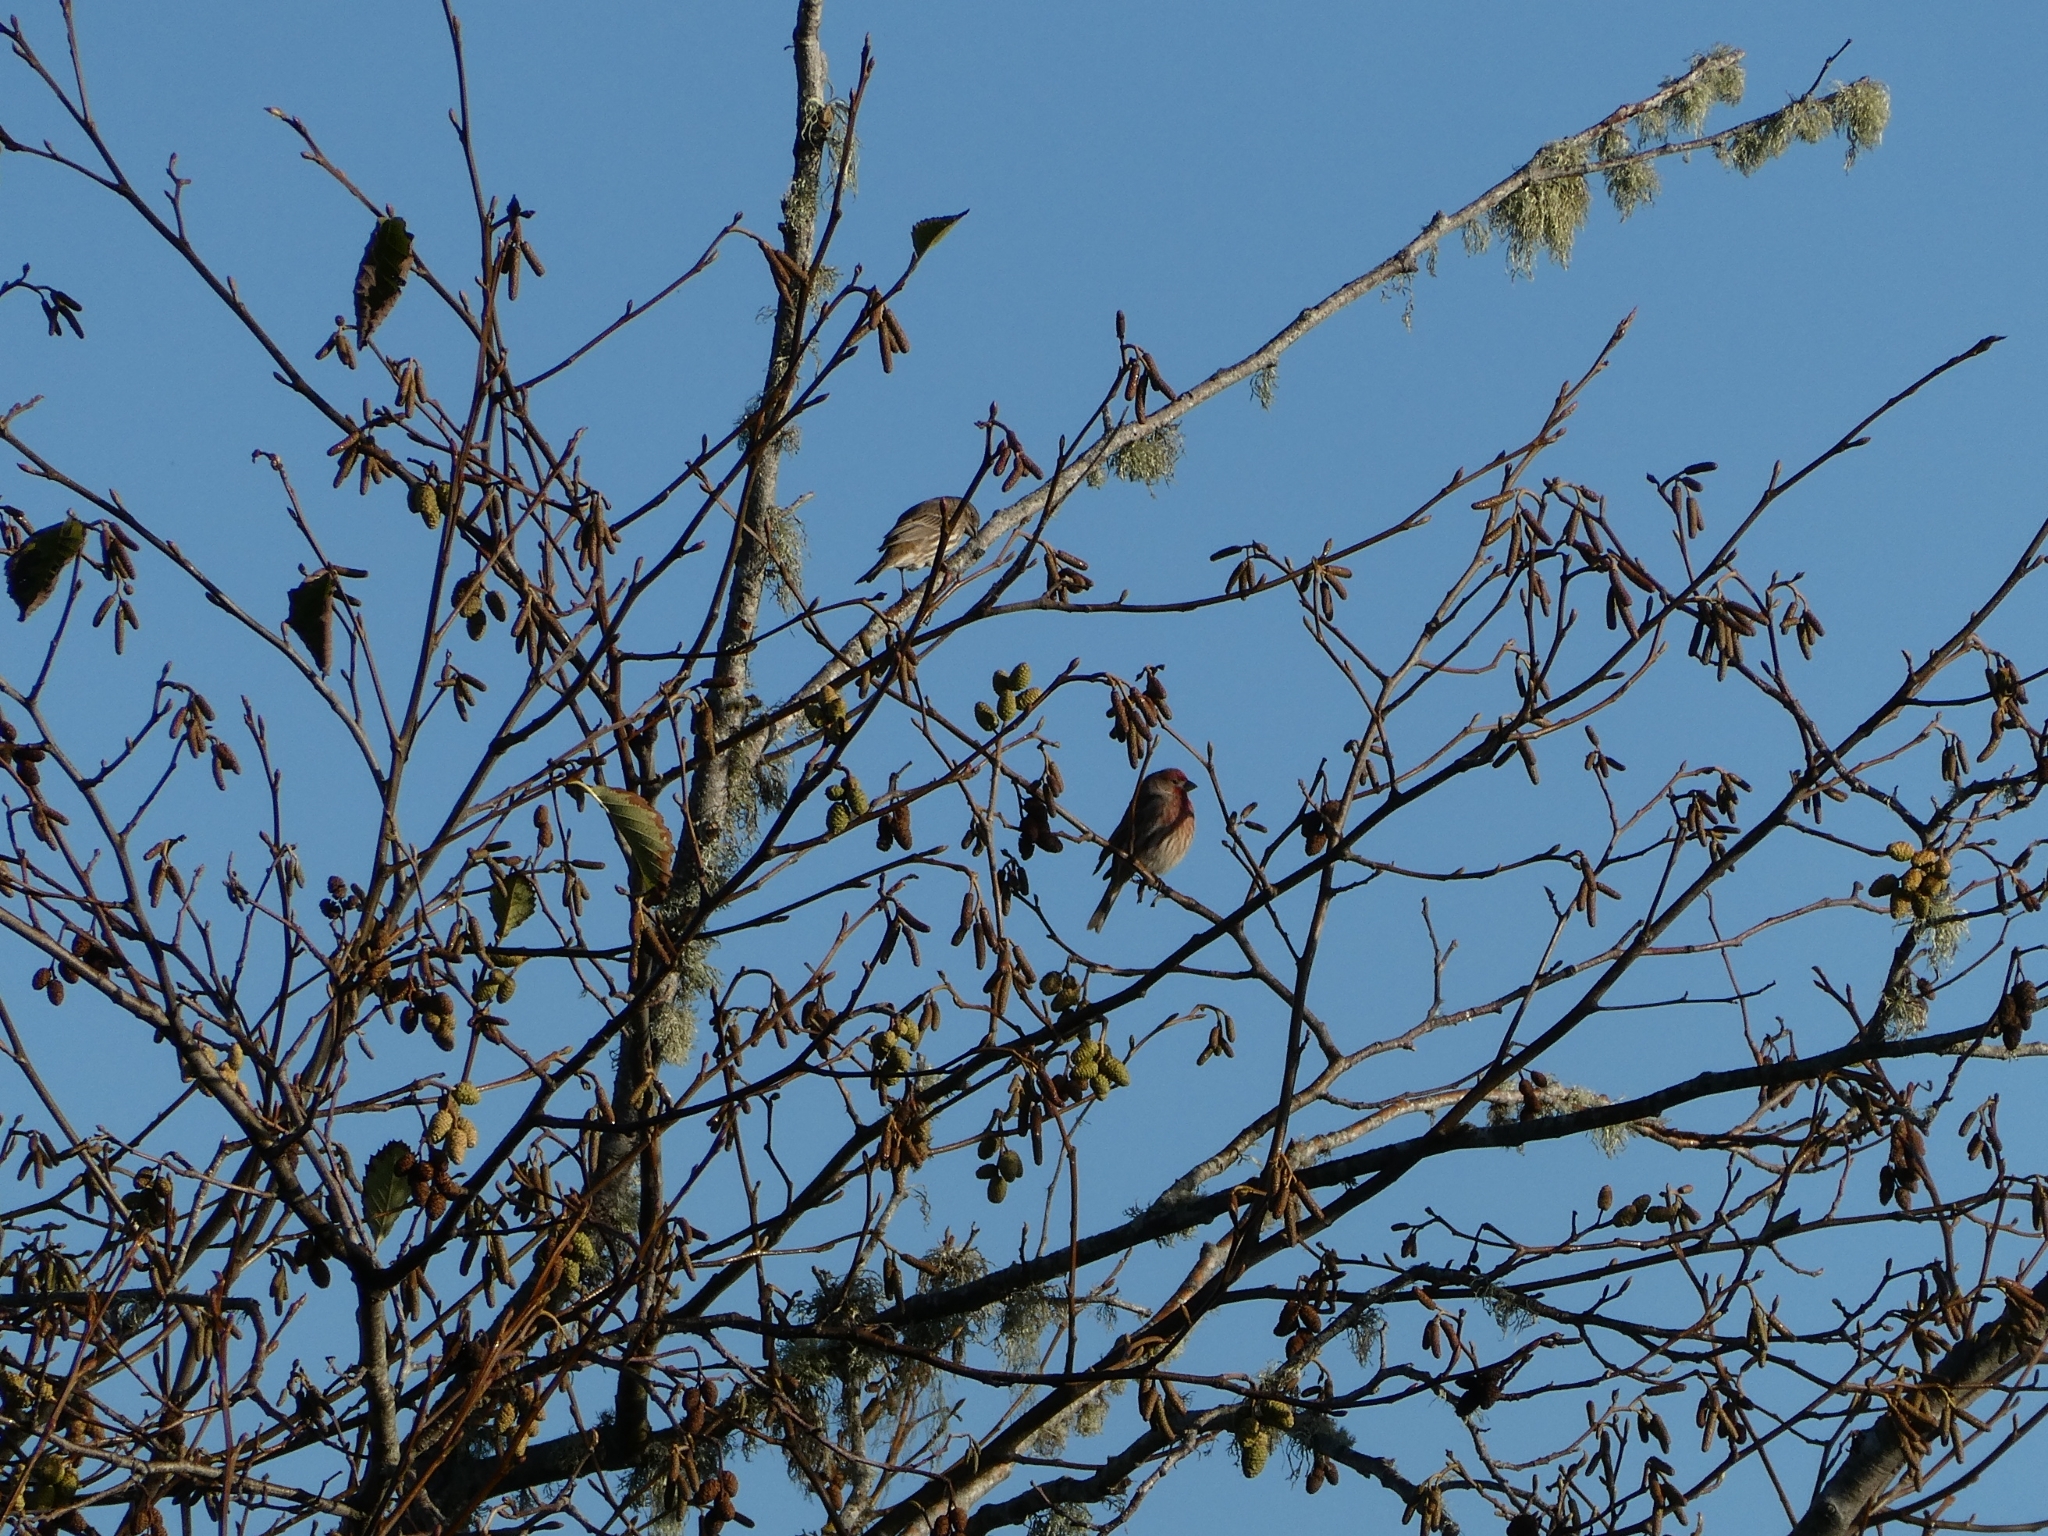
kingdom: Animalia
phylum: Chordata
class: Aves
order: Passeriformes
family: Fringillidae
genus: Haemorhous
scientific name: Haemorhous mexicanus
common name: House finch
